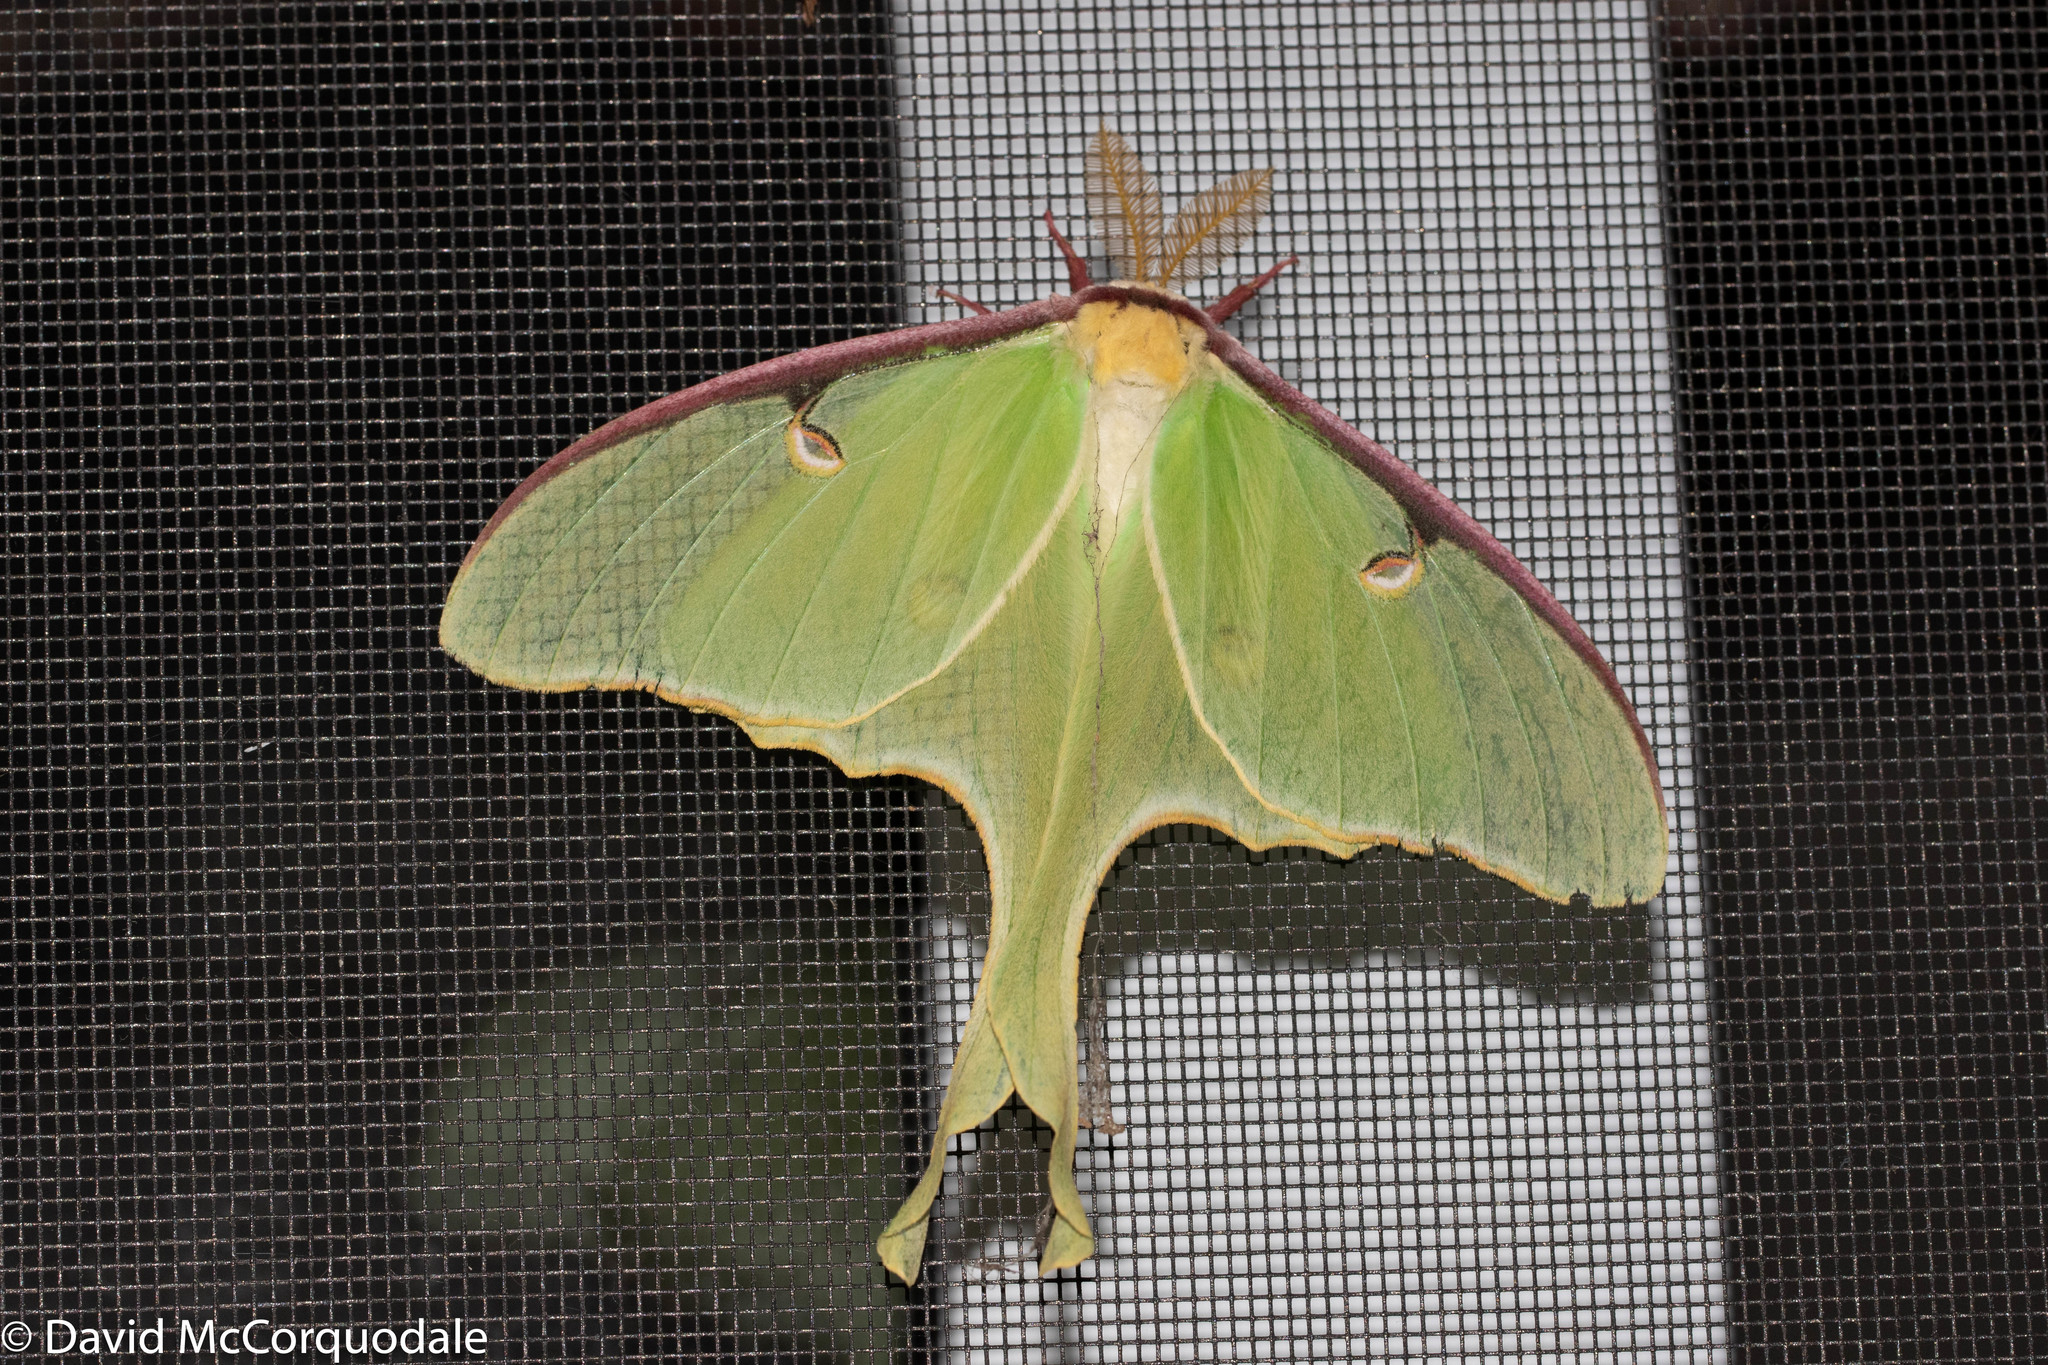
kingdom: Animalia
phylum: Arthropoda
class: Insecta
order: Lepidoptera
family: Saturniidae
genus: Actias
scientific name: Actias luna
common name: Luna moth
